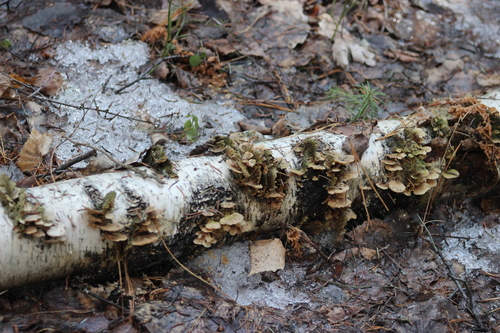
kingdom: Fungi
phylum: Basidiomycota
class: Agaricomycetes
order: Hymenochaetales
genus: Trichaptum
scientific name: Trichaptum biforme
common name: Violet-toothed polypore
